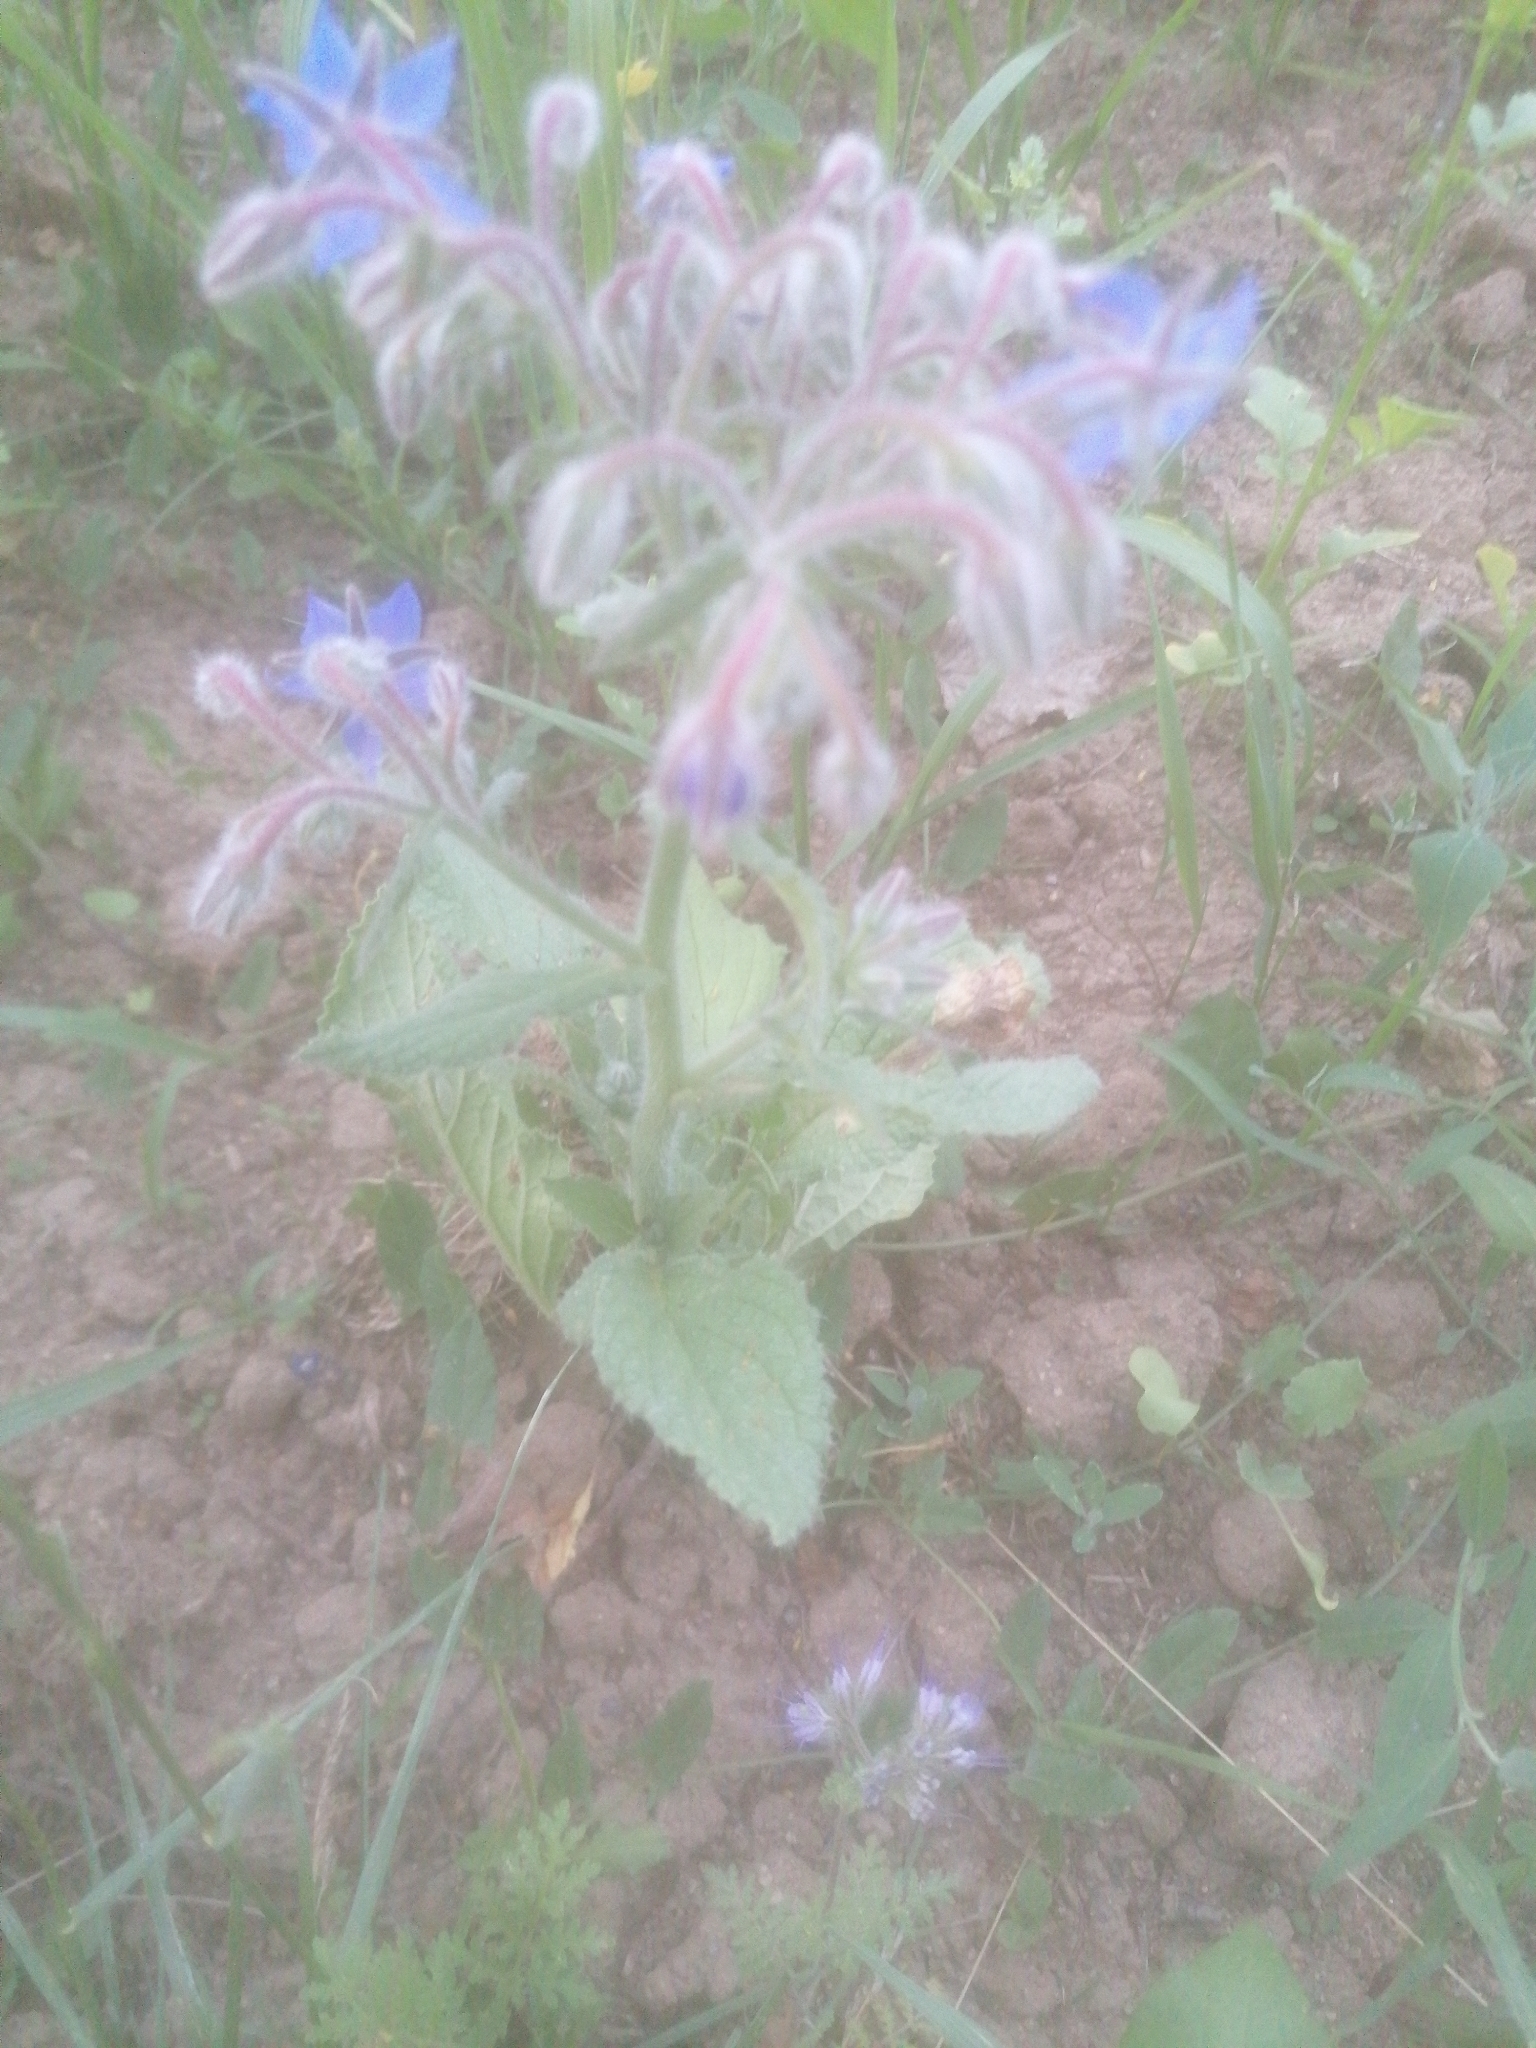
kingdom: Plantae
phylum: Tracheophyta
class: Magnoliopsida
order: Boraginales
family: Boraginaceae
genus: Borago
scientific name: Borago officinalis
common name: Borage
